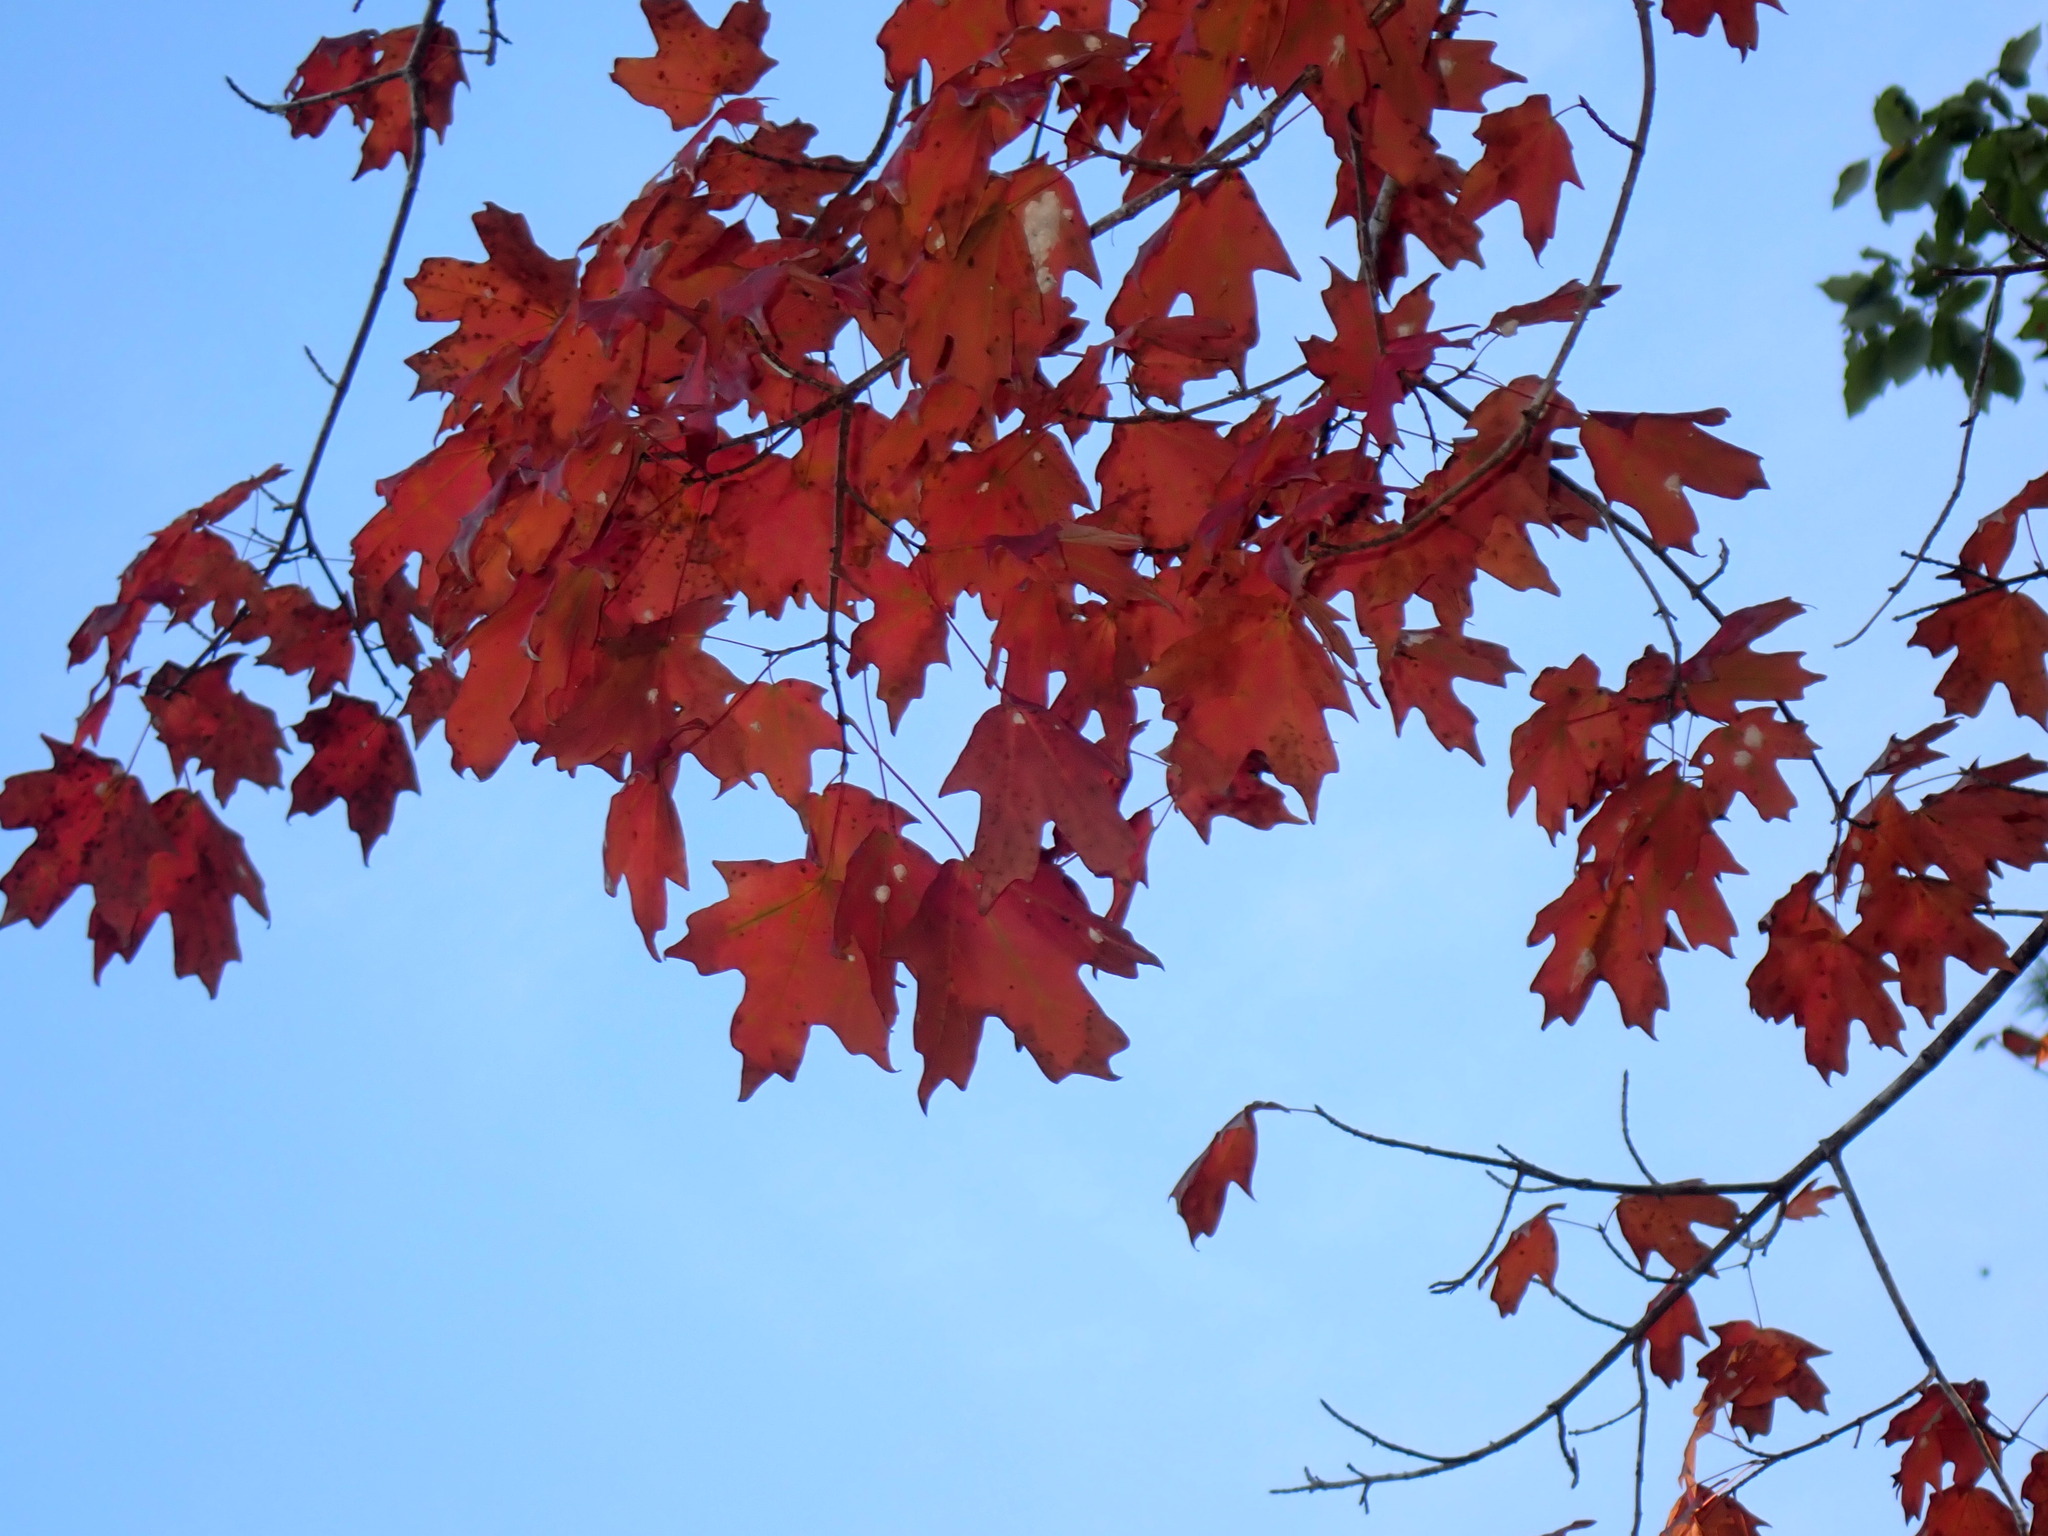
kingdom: Plantae
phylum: Tracheophyta
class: Magnoliopsida
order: Sapindales
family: Sapindaceae
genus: Acer
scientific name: Acer floridanum
